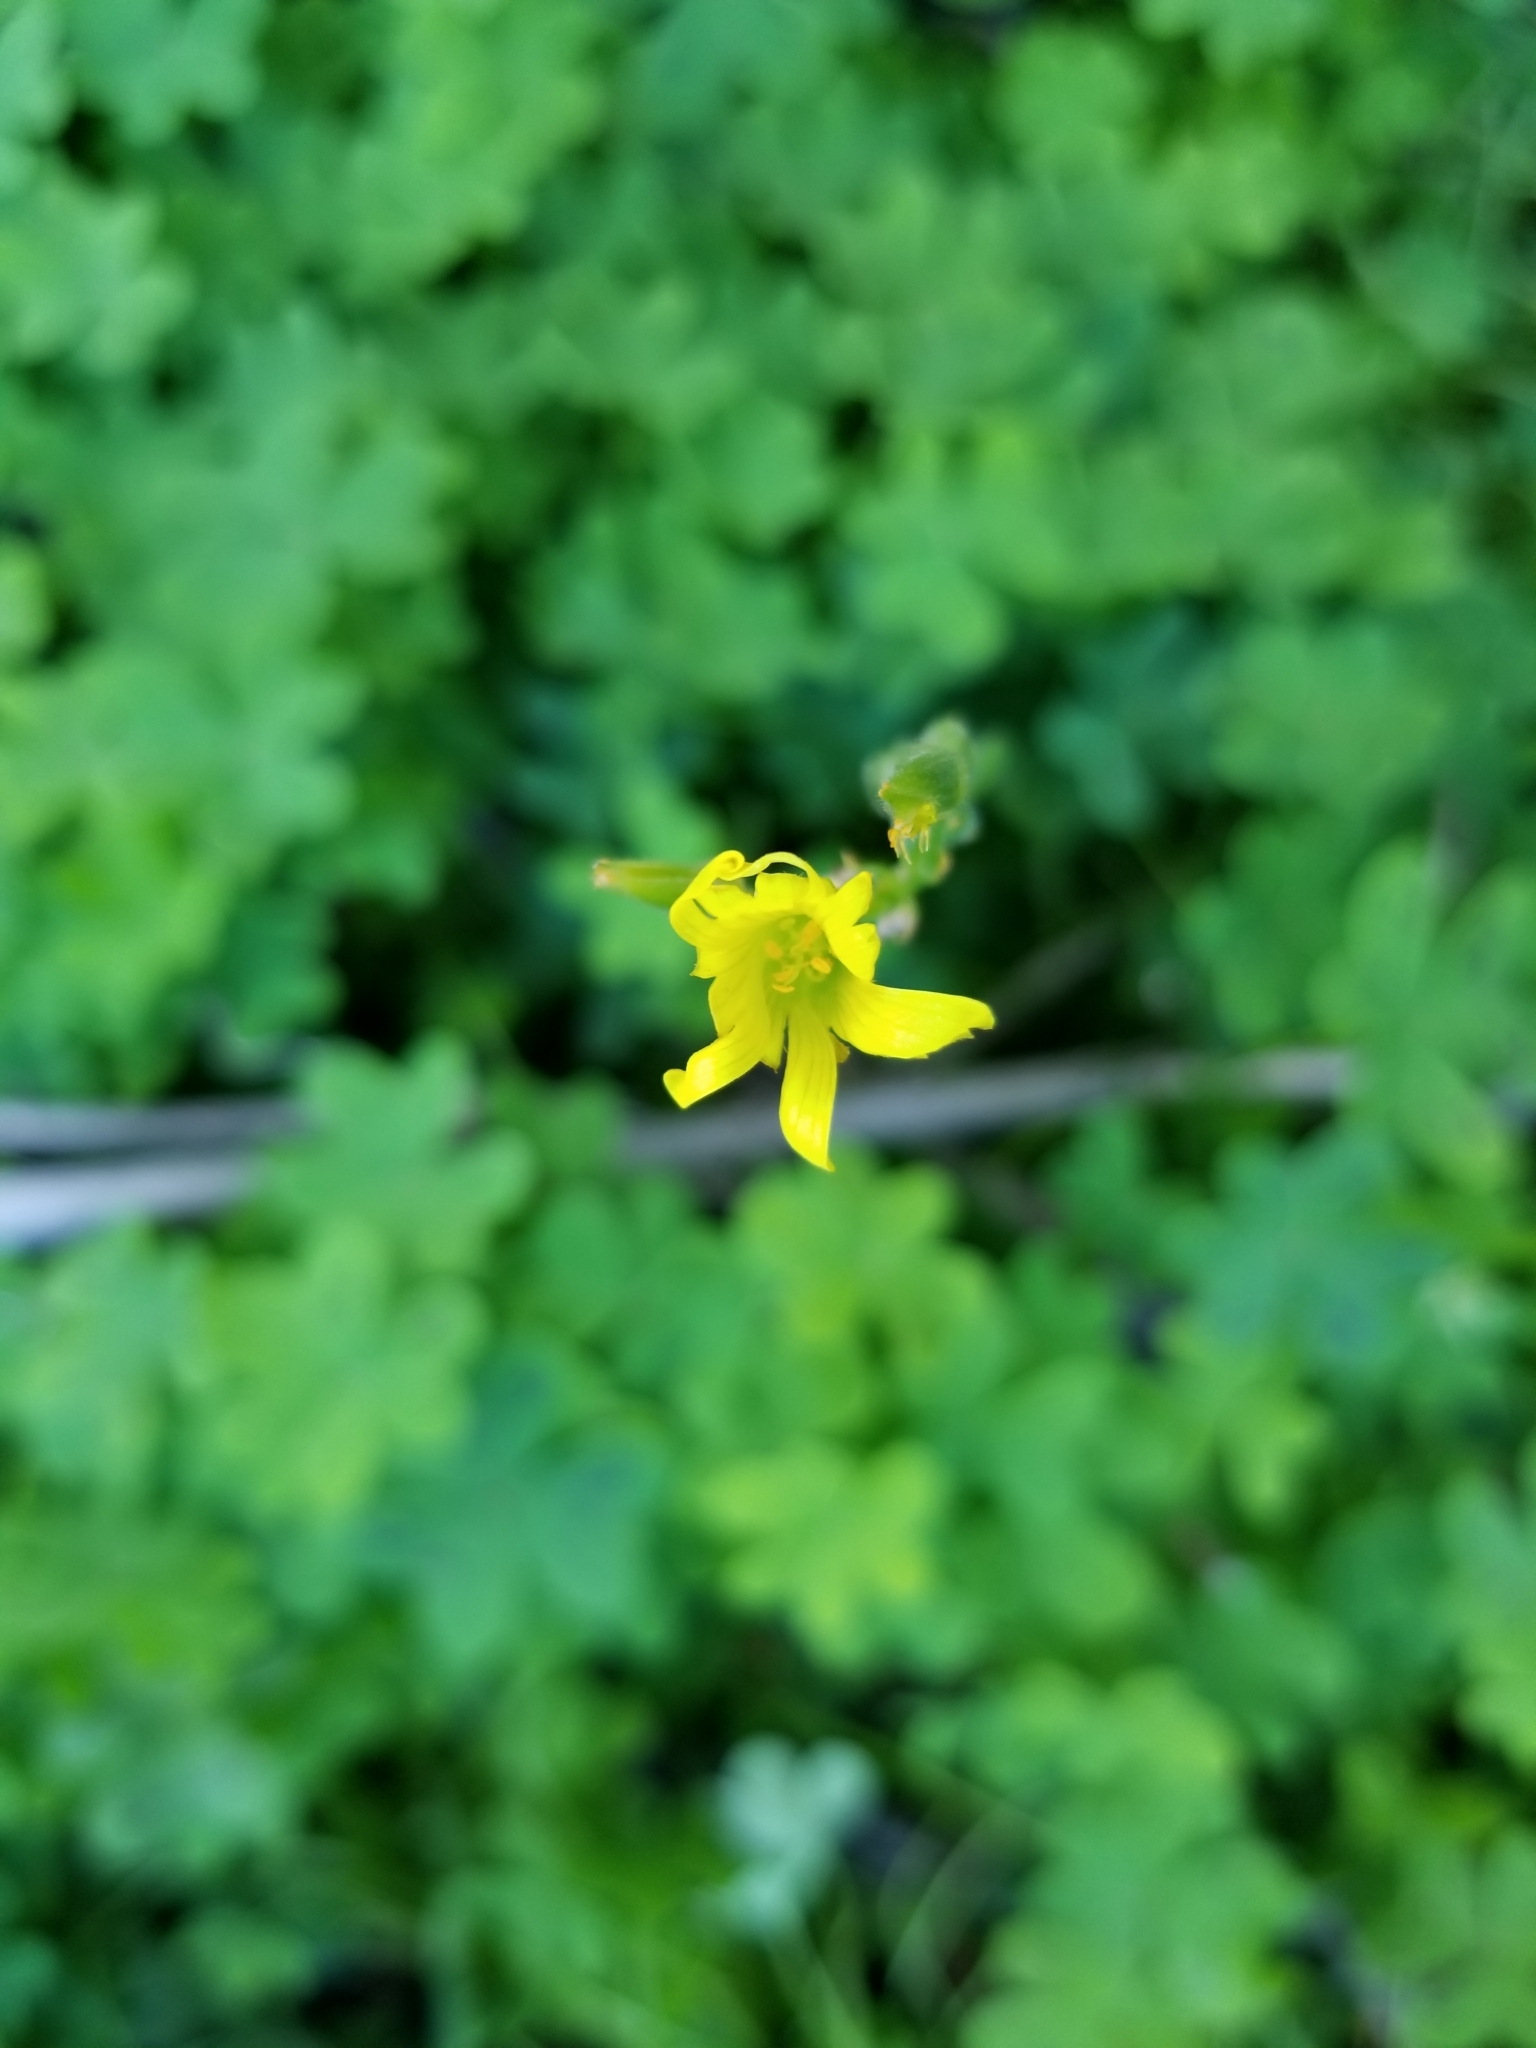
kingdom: Plantae
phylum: Tracheophyta
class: Magnoliopsida
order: Oxalidales
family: Oxalidaceae
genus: Oxalis
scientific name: Oxalis pes-caprae
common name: Bermuda-buttercup
